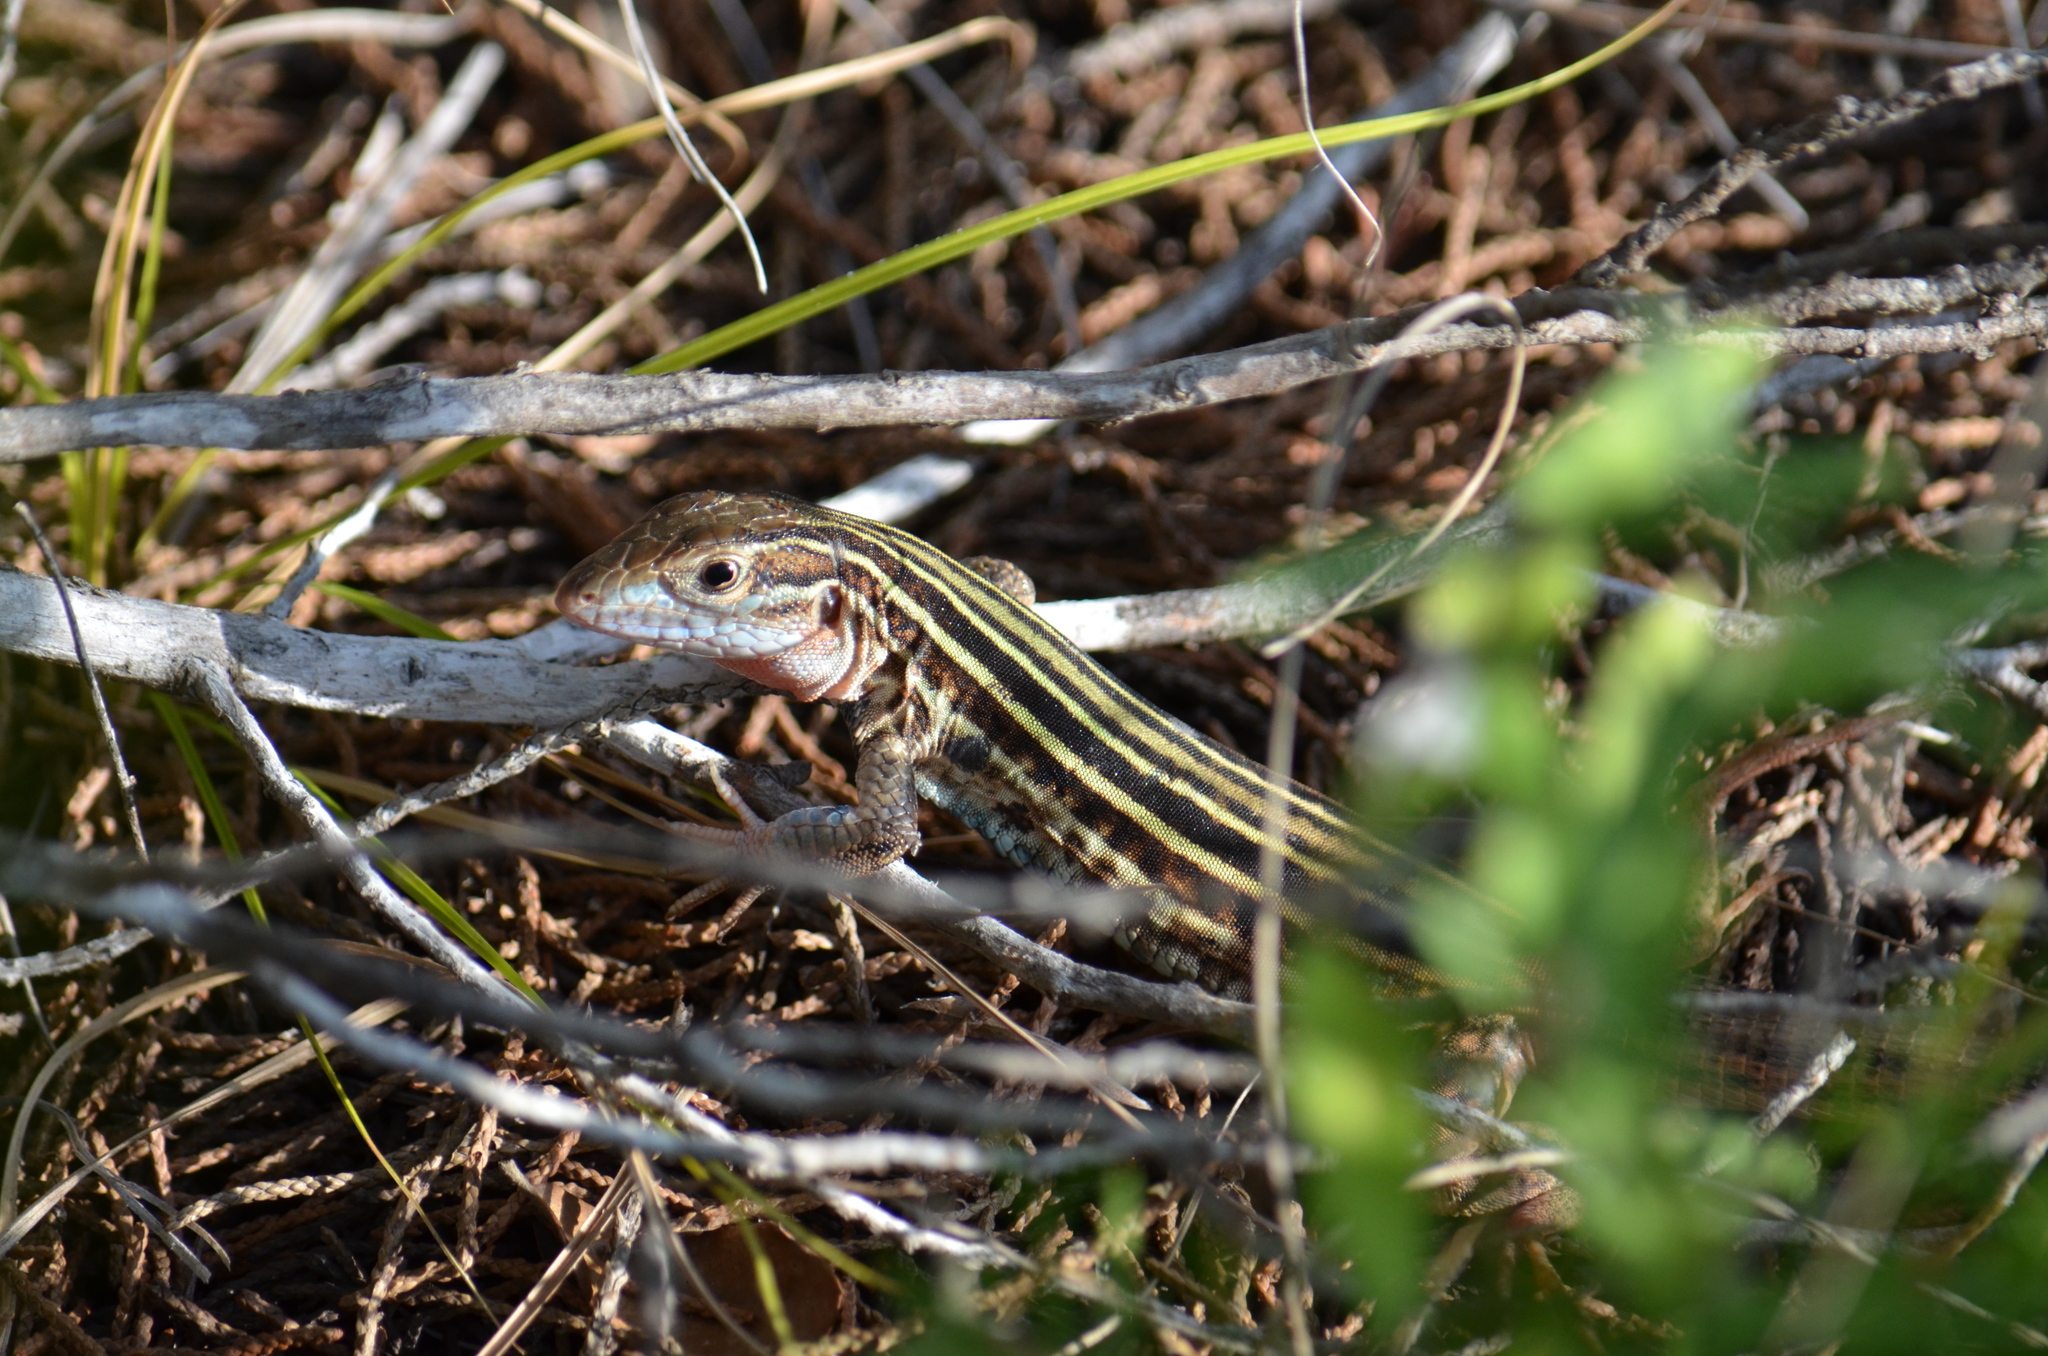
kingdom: Animalia
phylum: Chordata
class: Squamata
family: Teiidae
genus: Aspidoscelis
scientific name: Aspidoscelis gularis
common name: Eastern spotted whiptail
